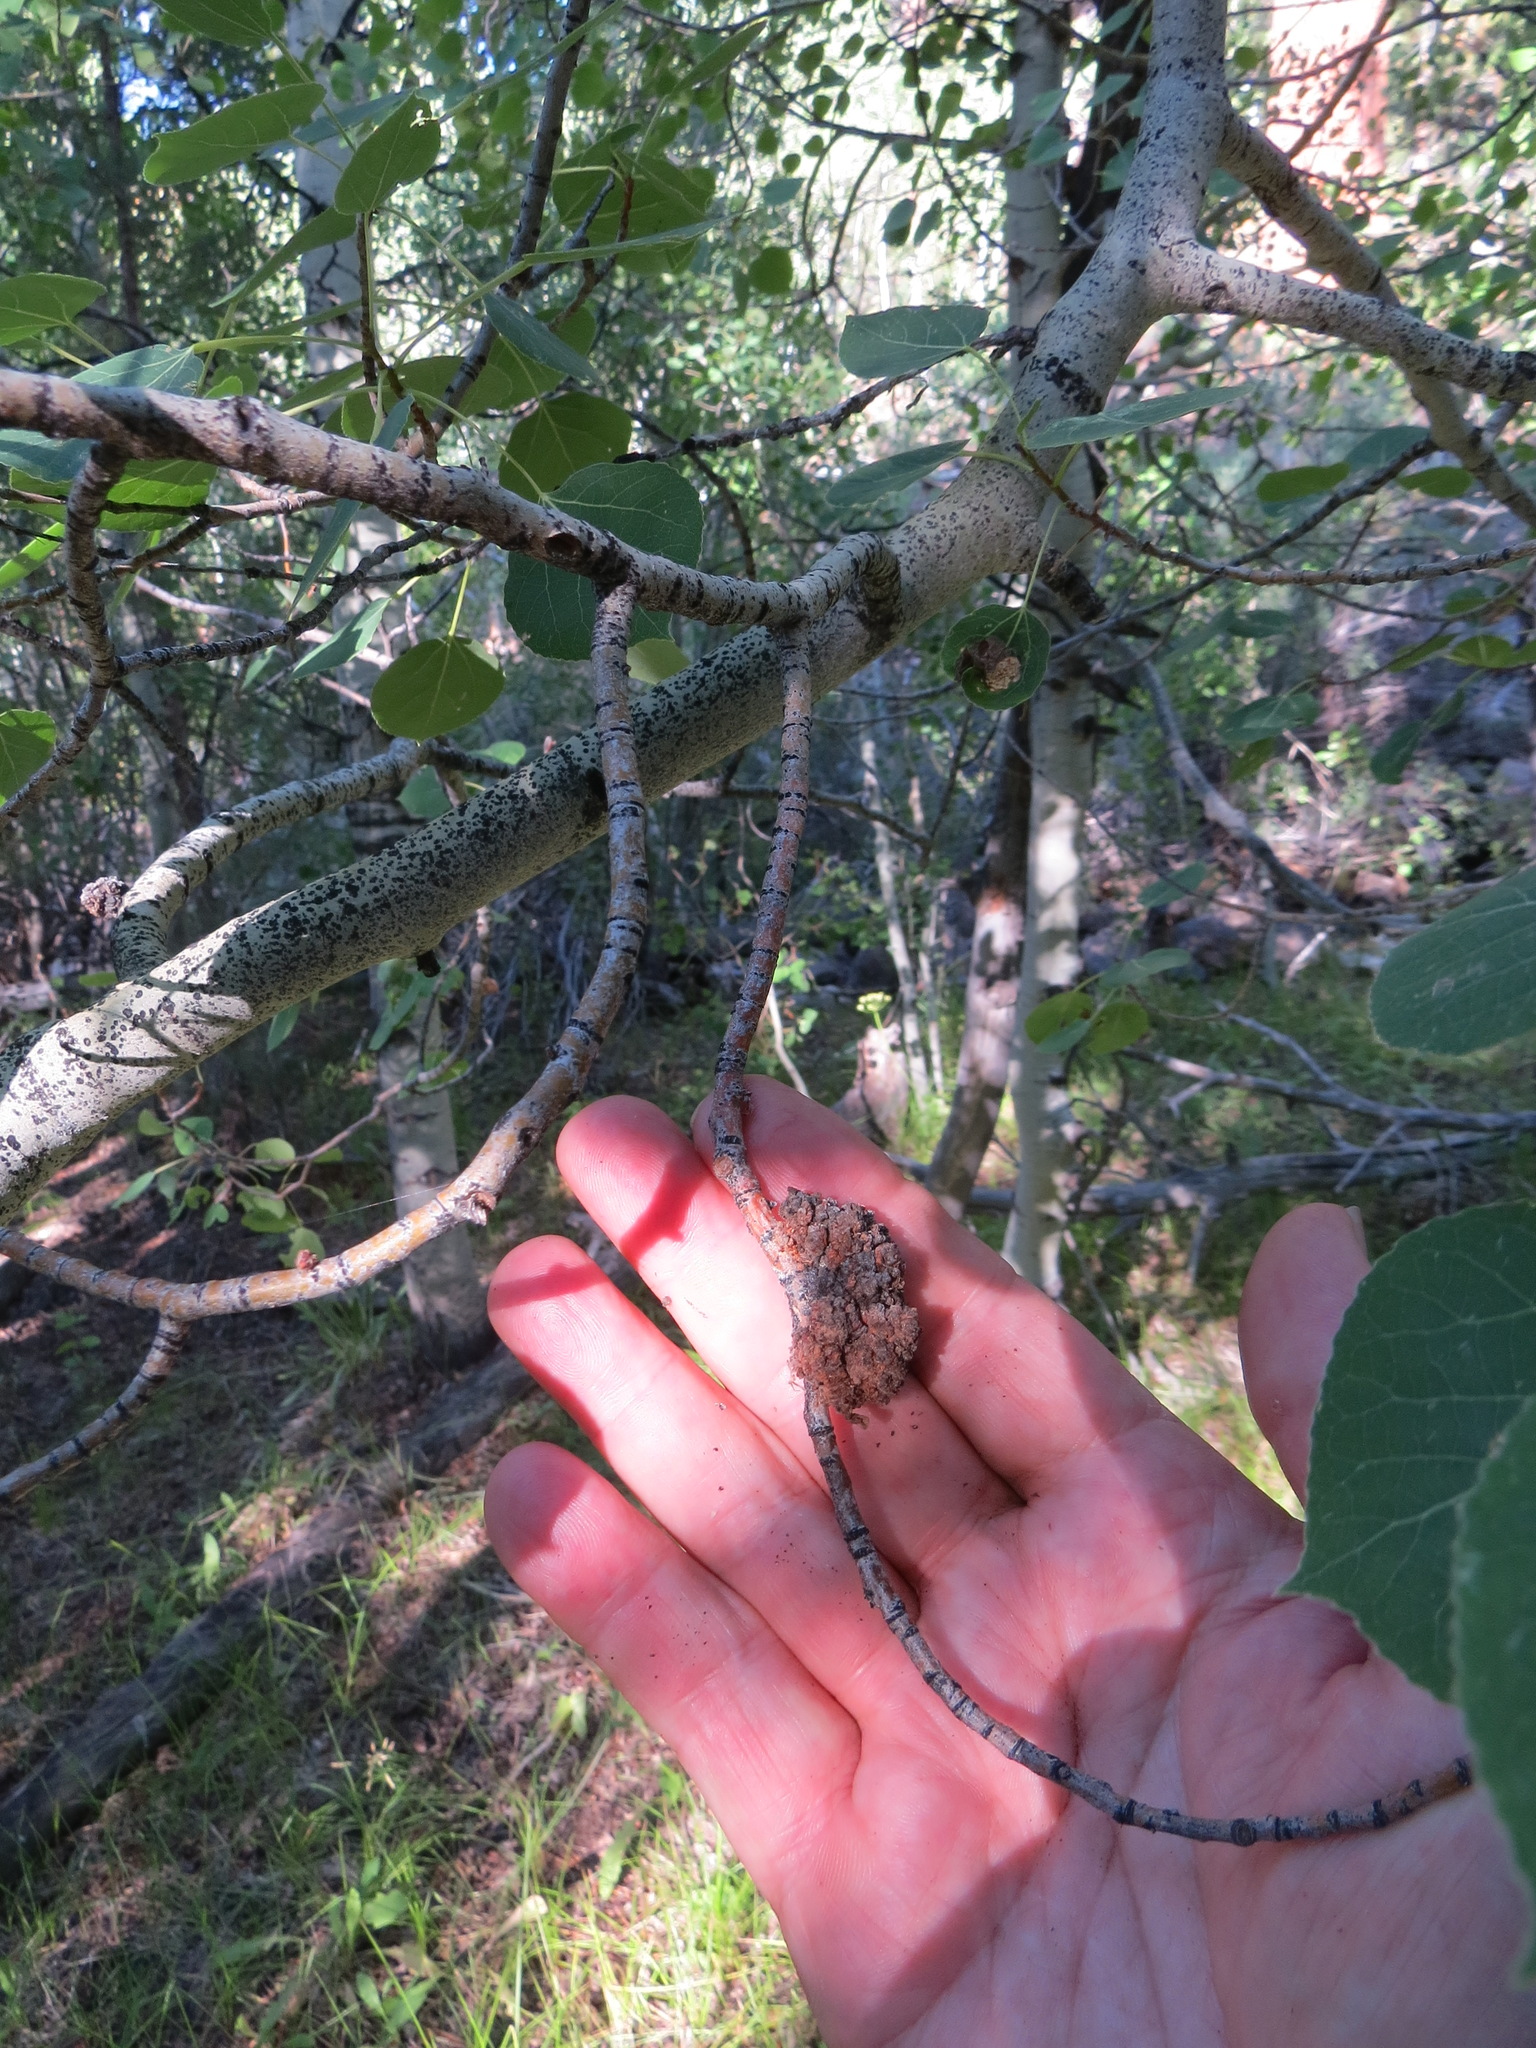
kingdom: Animalia
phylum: Arthropoda
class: Arachnida
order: Trombidiformes
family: Eriophyidae
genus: Aceria
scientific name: Aceria
